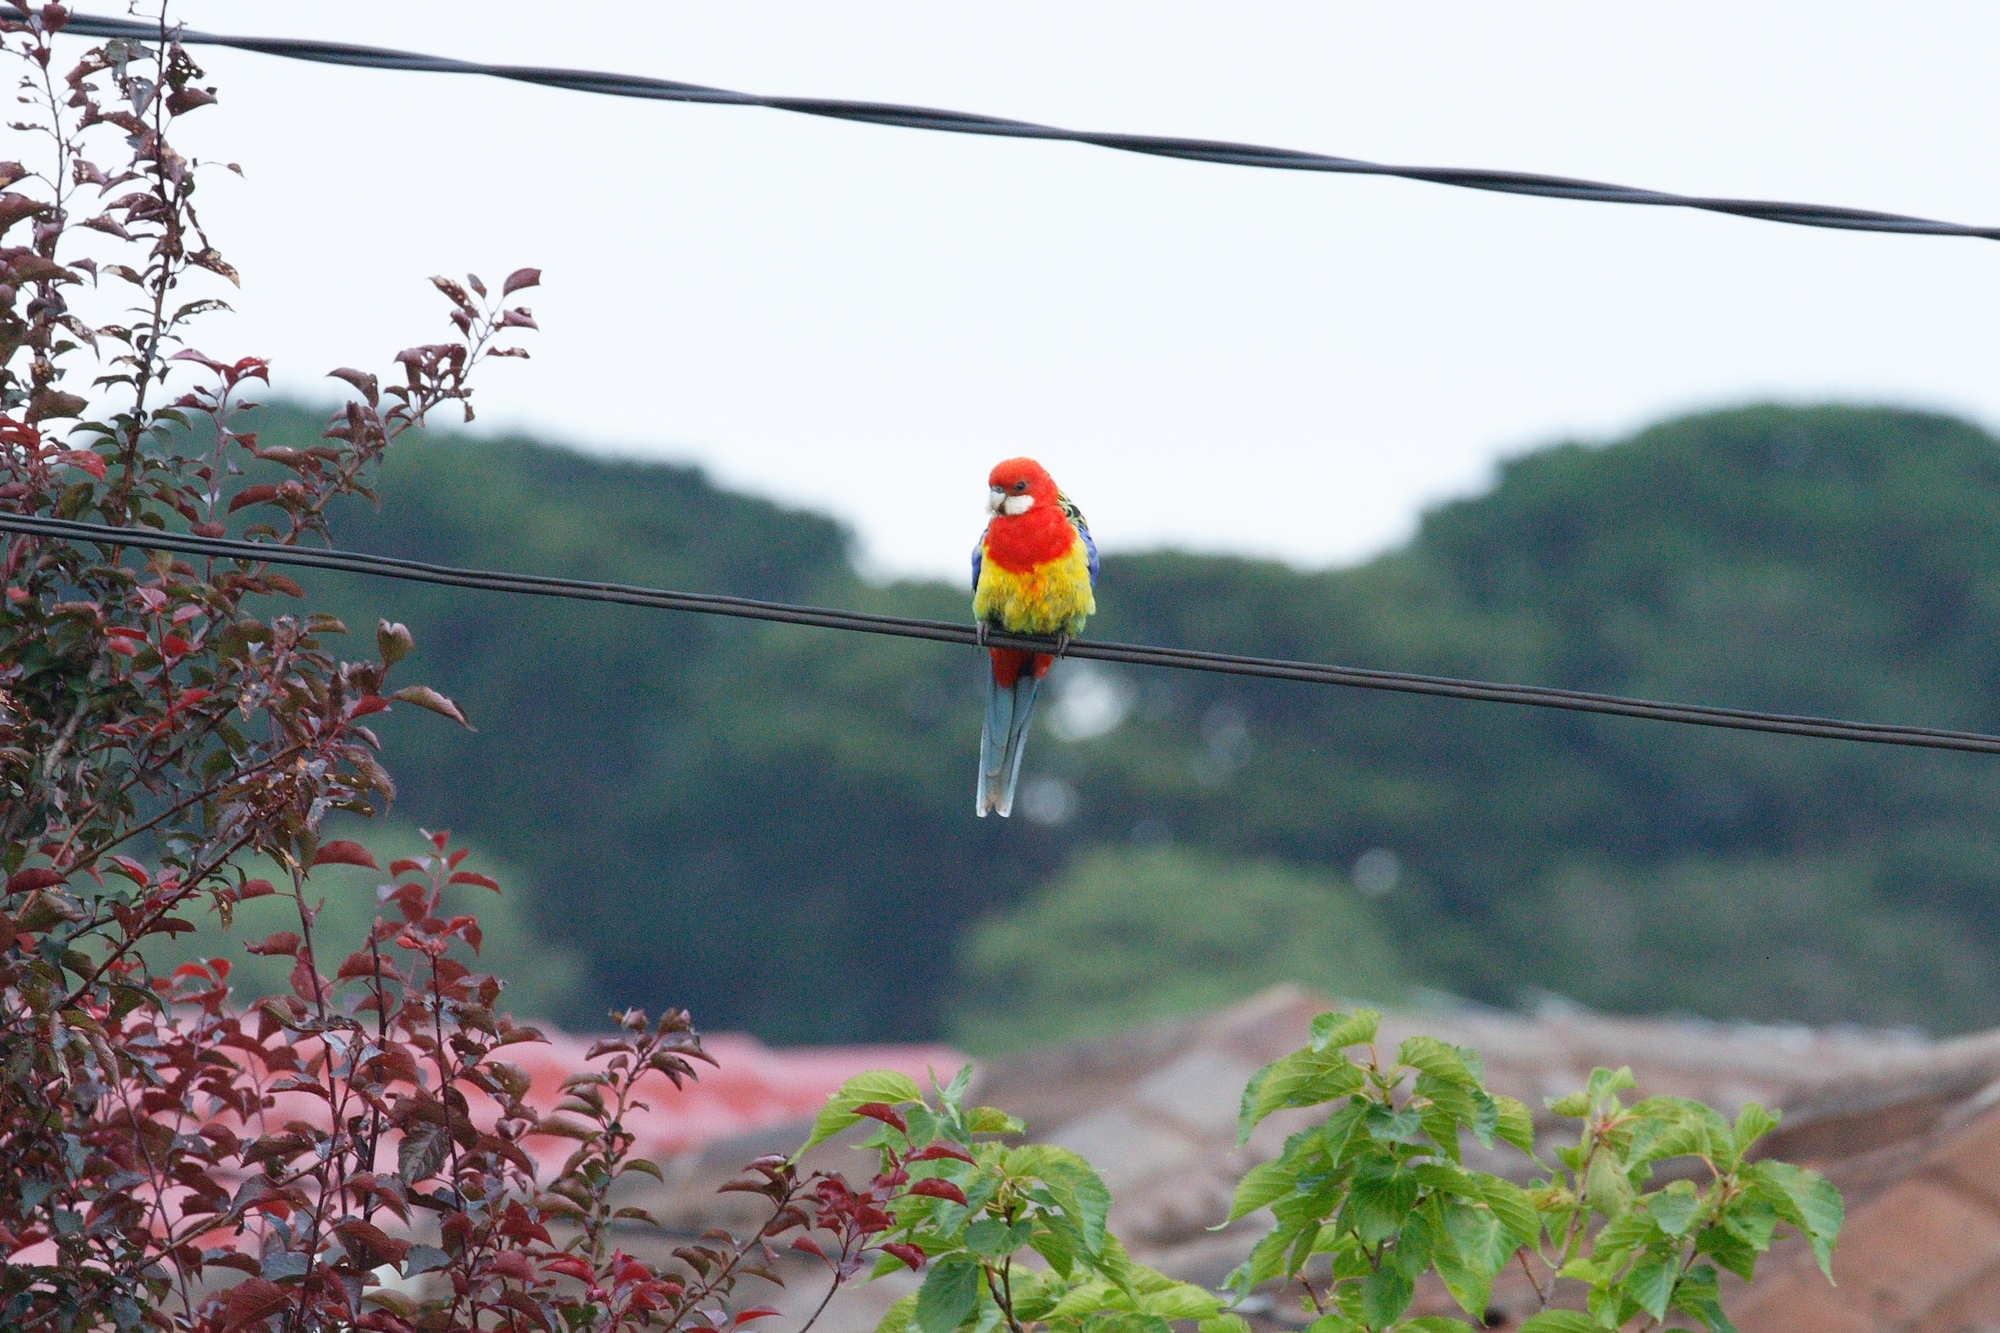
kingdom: Animalia
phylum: Chordata
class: Aves
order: Psittaciformes
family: Psittacidae
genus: Platycercus
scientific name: Platycercus eximius
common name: Eastern rosella
